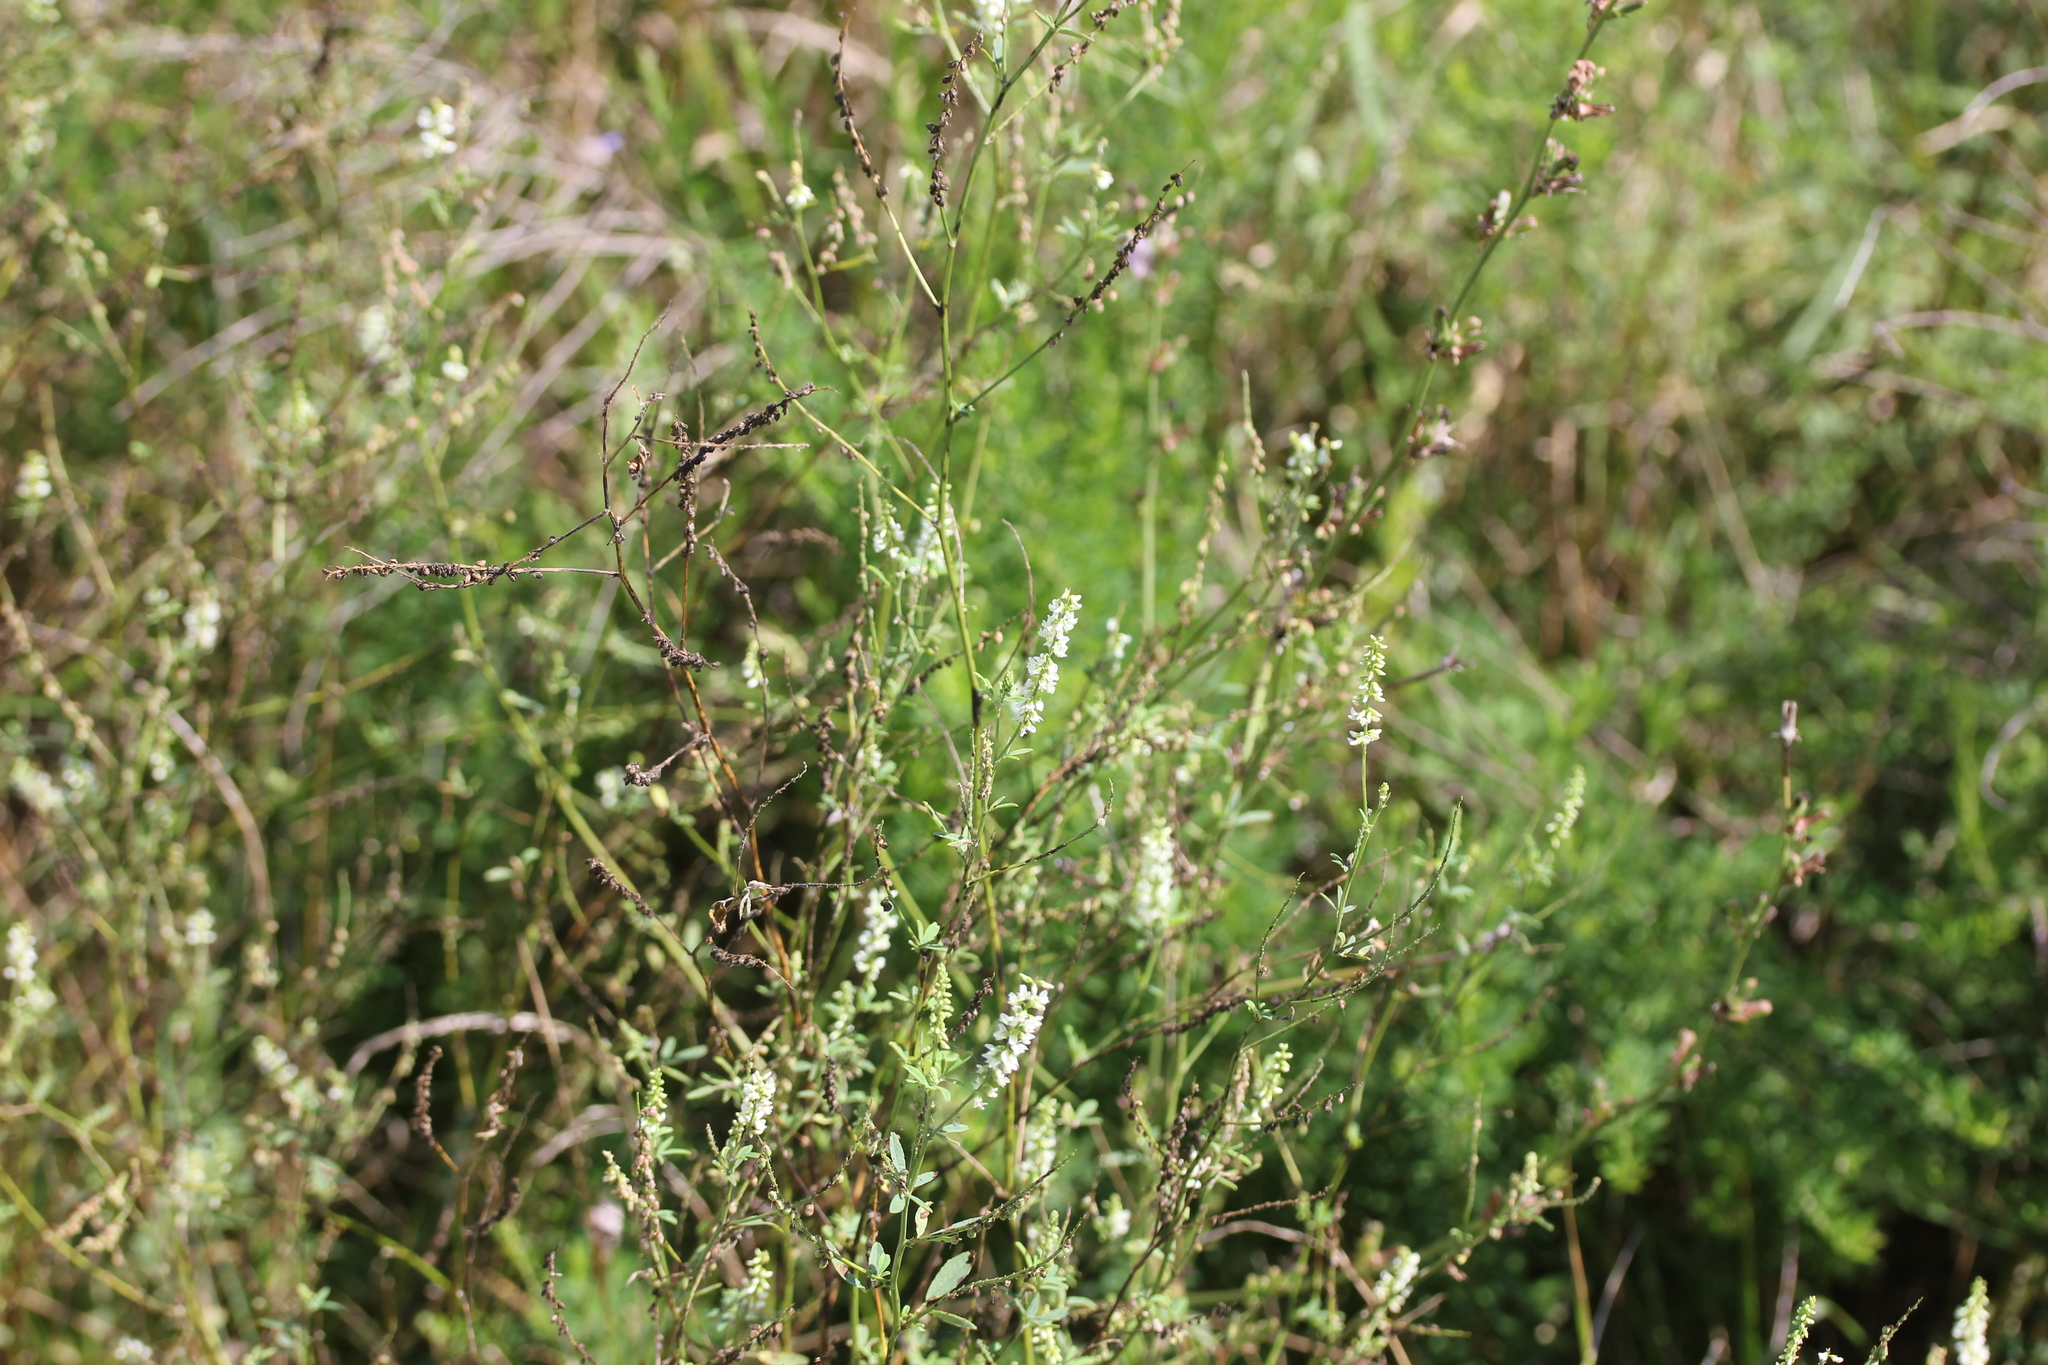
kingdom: Plantae
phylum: Tracheophyta
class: Magnoliopsida
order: Fabales
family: Fabaceae
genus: Melilotus
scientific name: Melilotus albus
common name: White melilot
